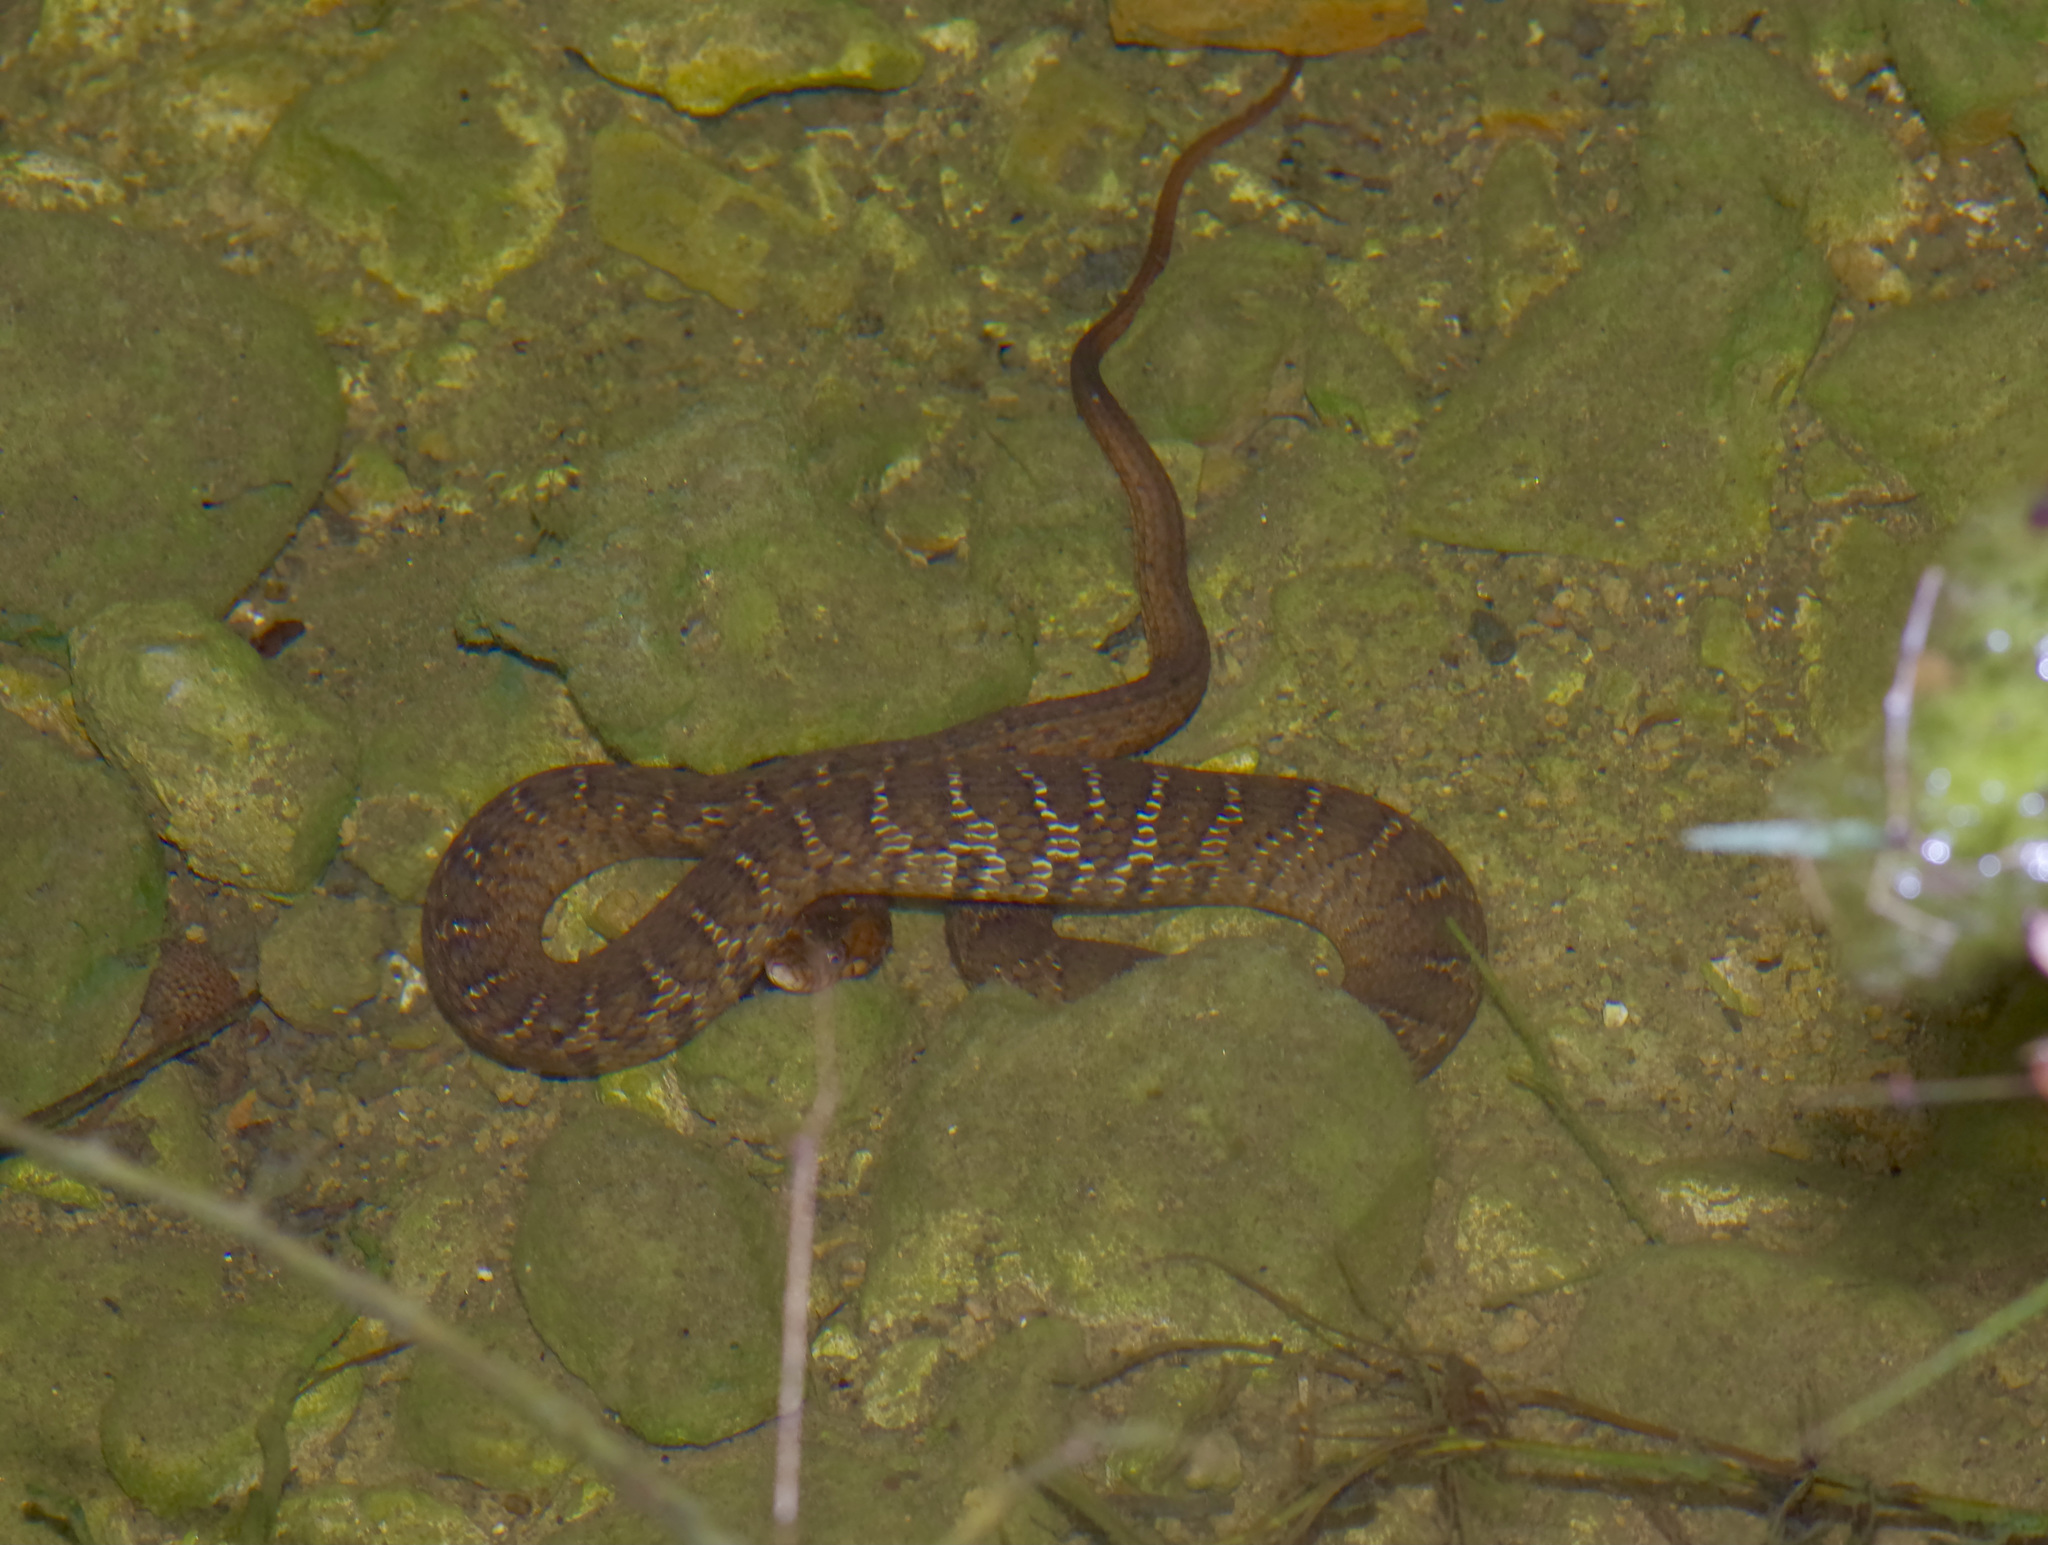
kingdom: Animalia
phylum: Chordata
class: Squamata
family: Colubridae
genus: Nerodia
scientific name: Nerodia erythrogaster
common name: Plainbelly water snake
